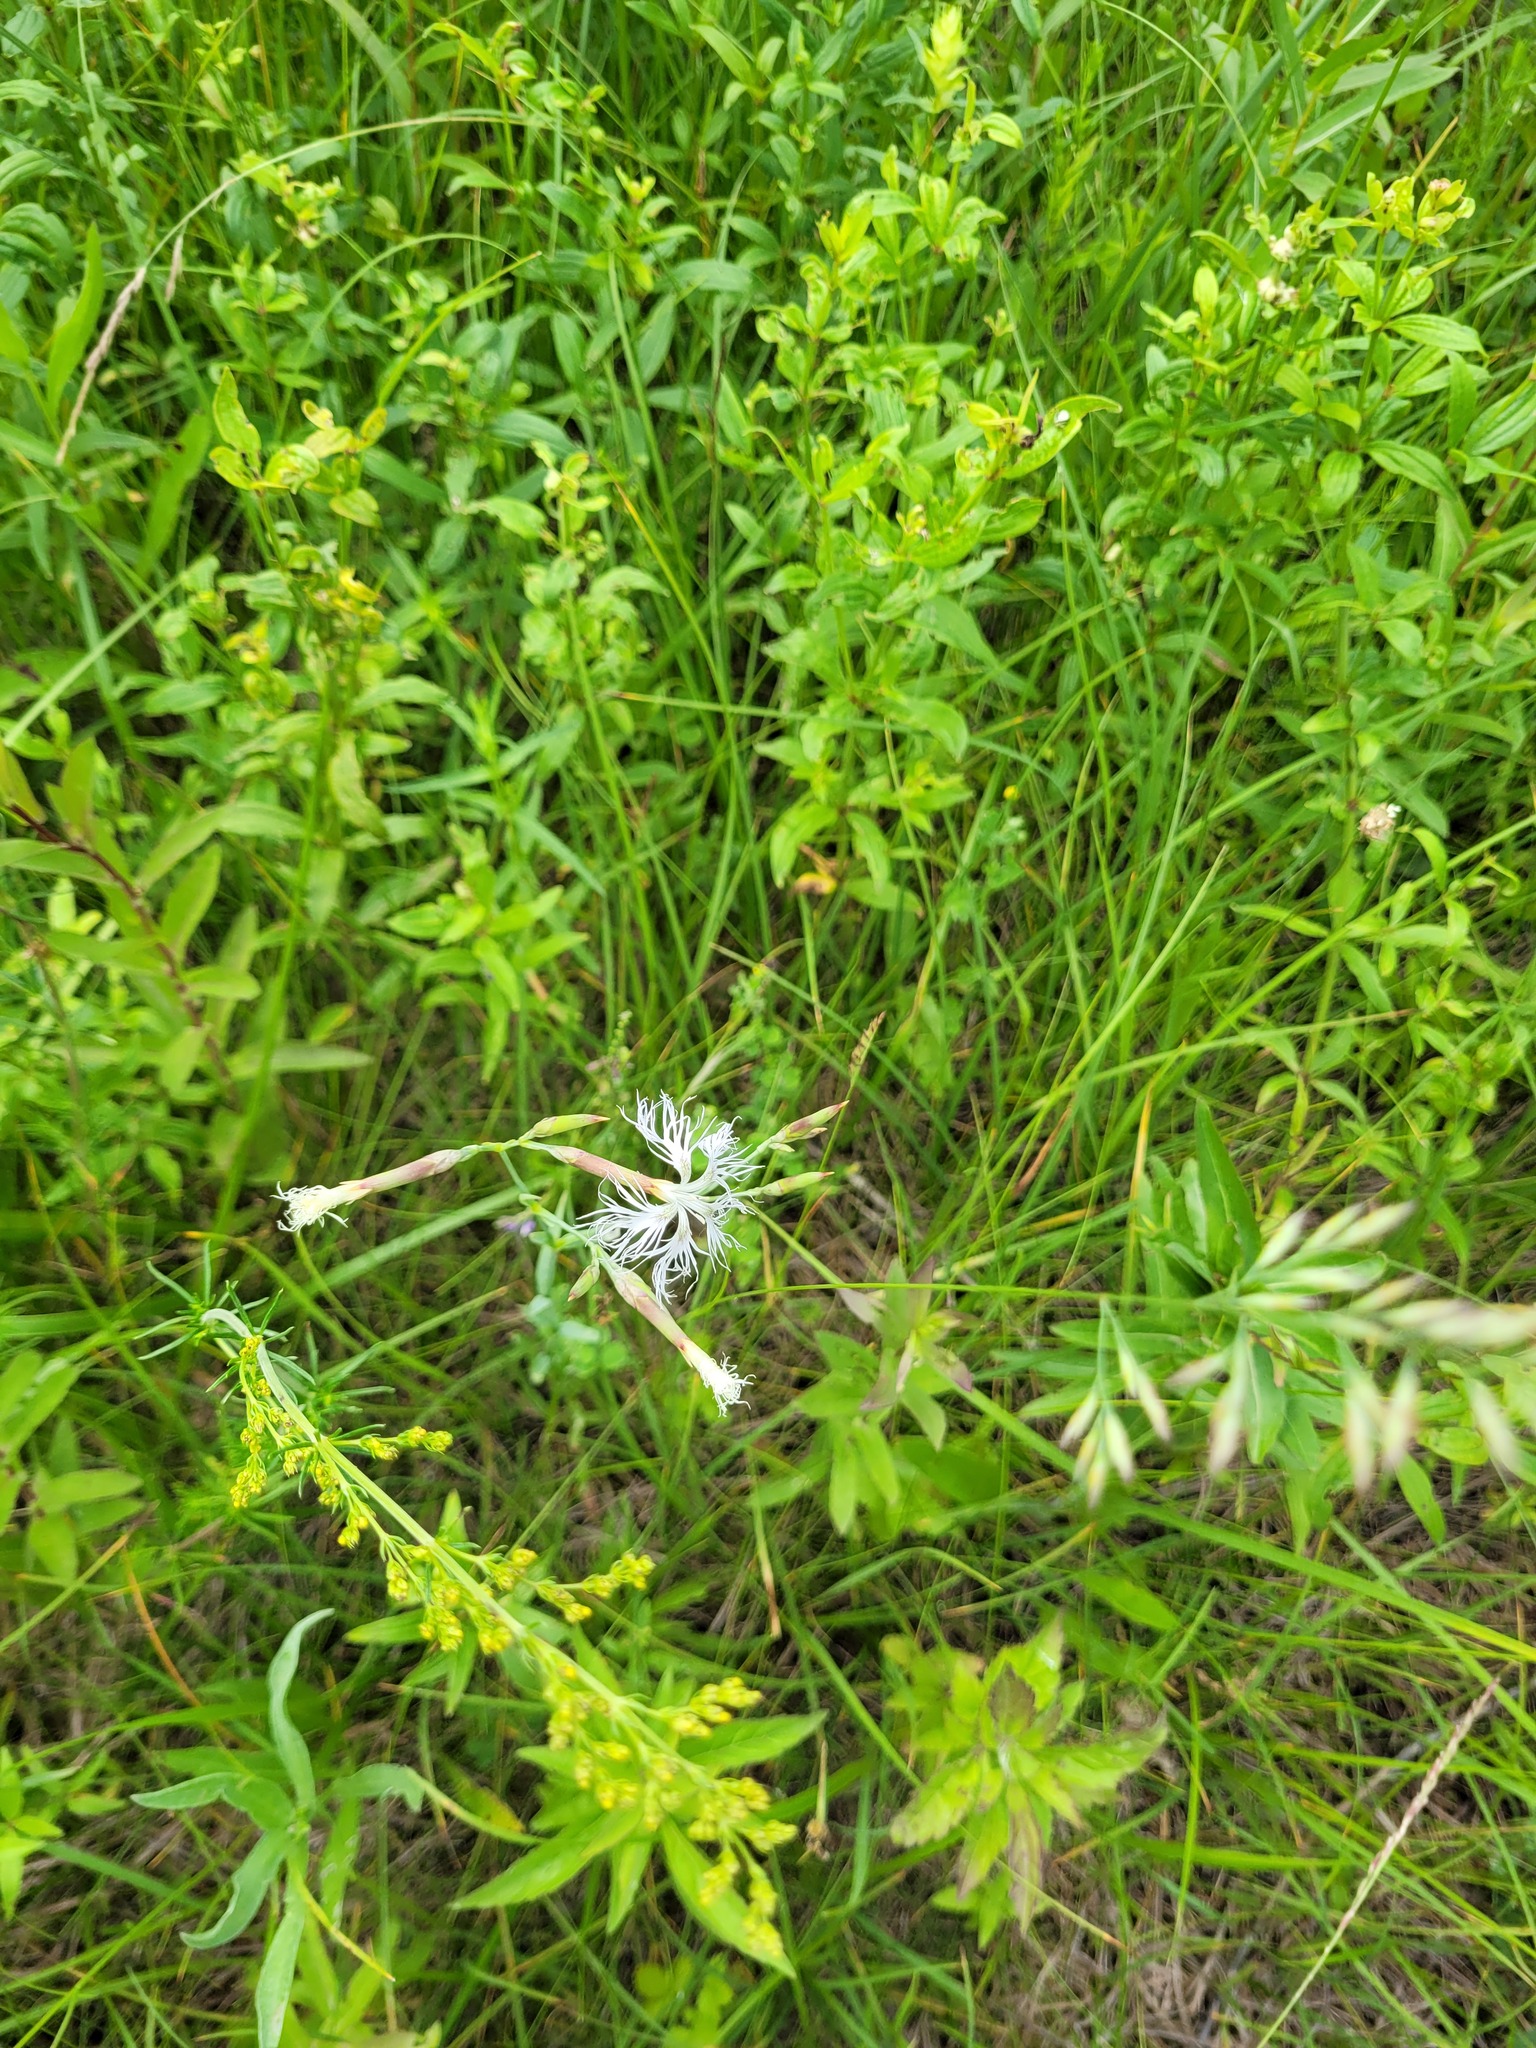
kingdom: Plantae
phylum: Tracheophyta
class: Magnoliopsida
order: Caryophyllales
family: Caryophyllaceae
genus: Dianthus
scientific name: Dianthus superbus
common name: Fringed pink
